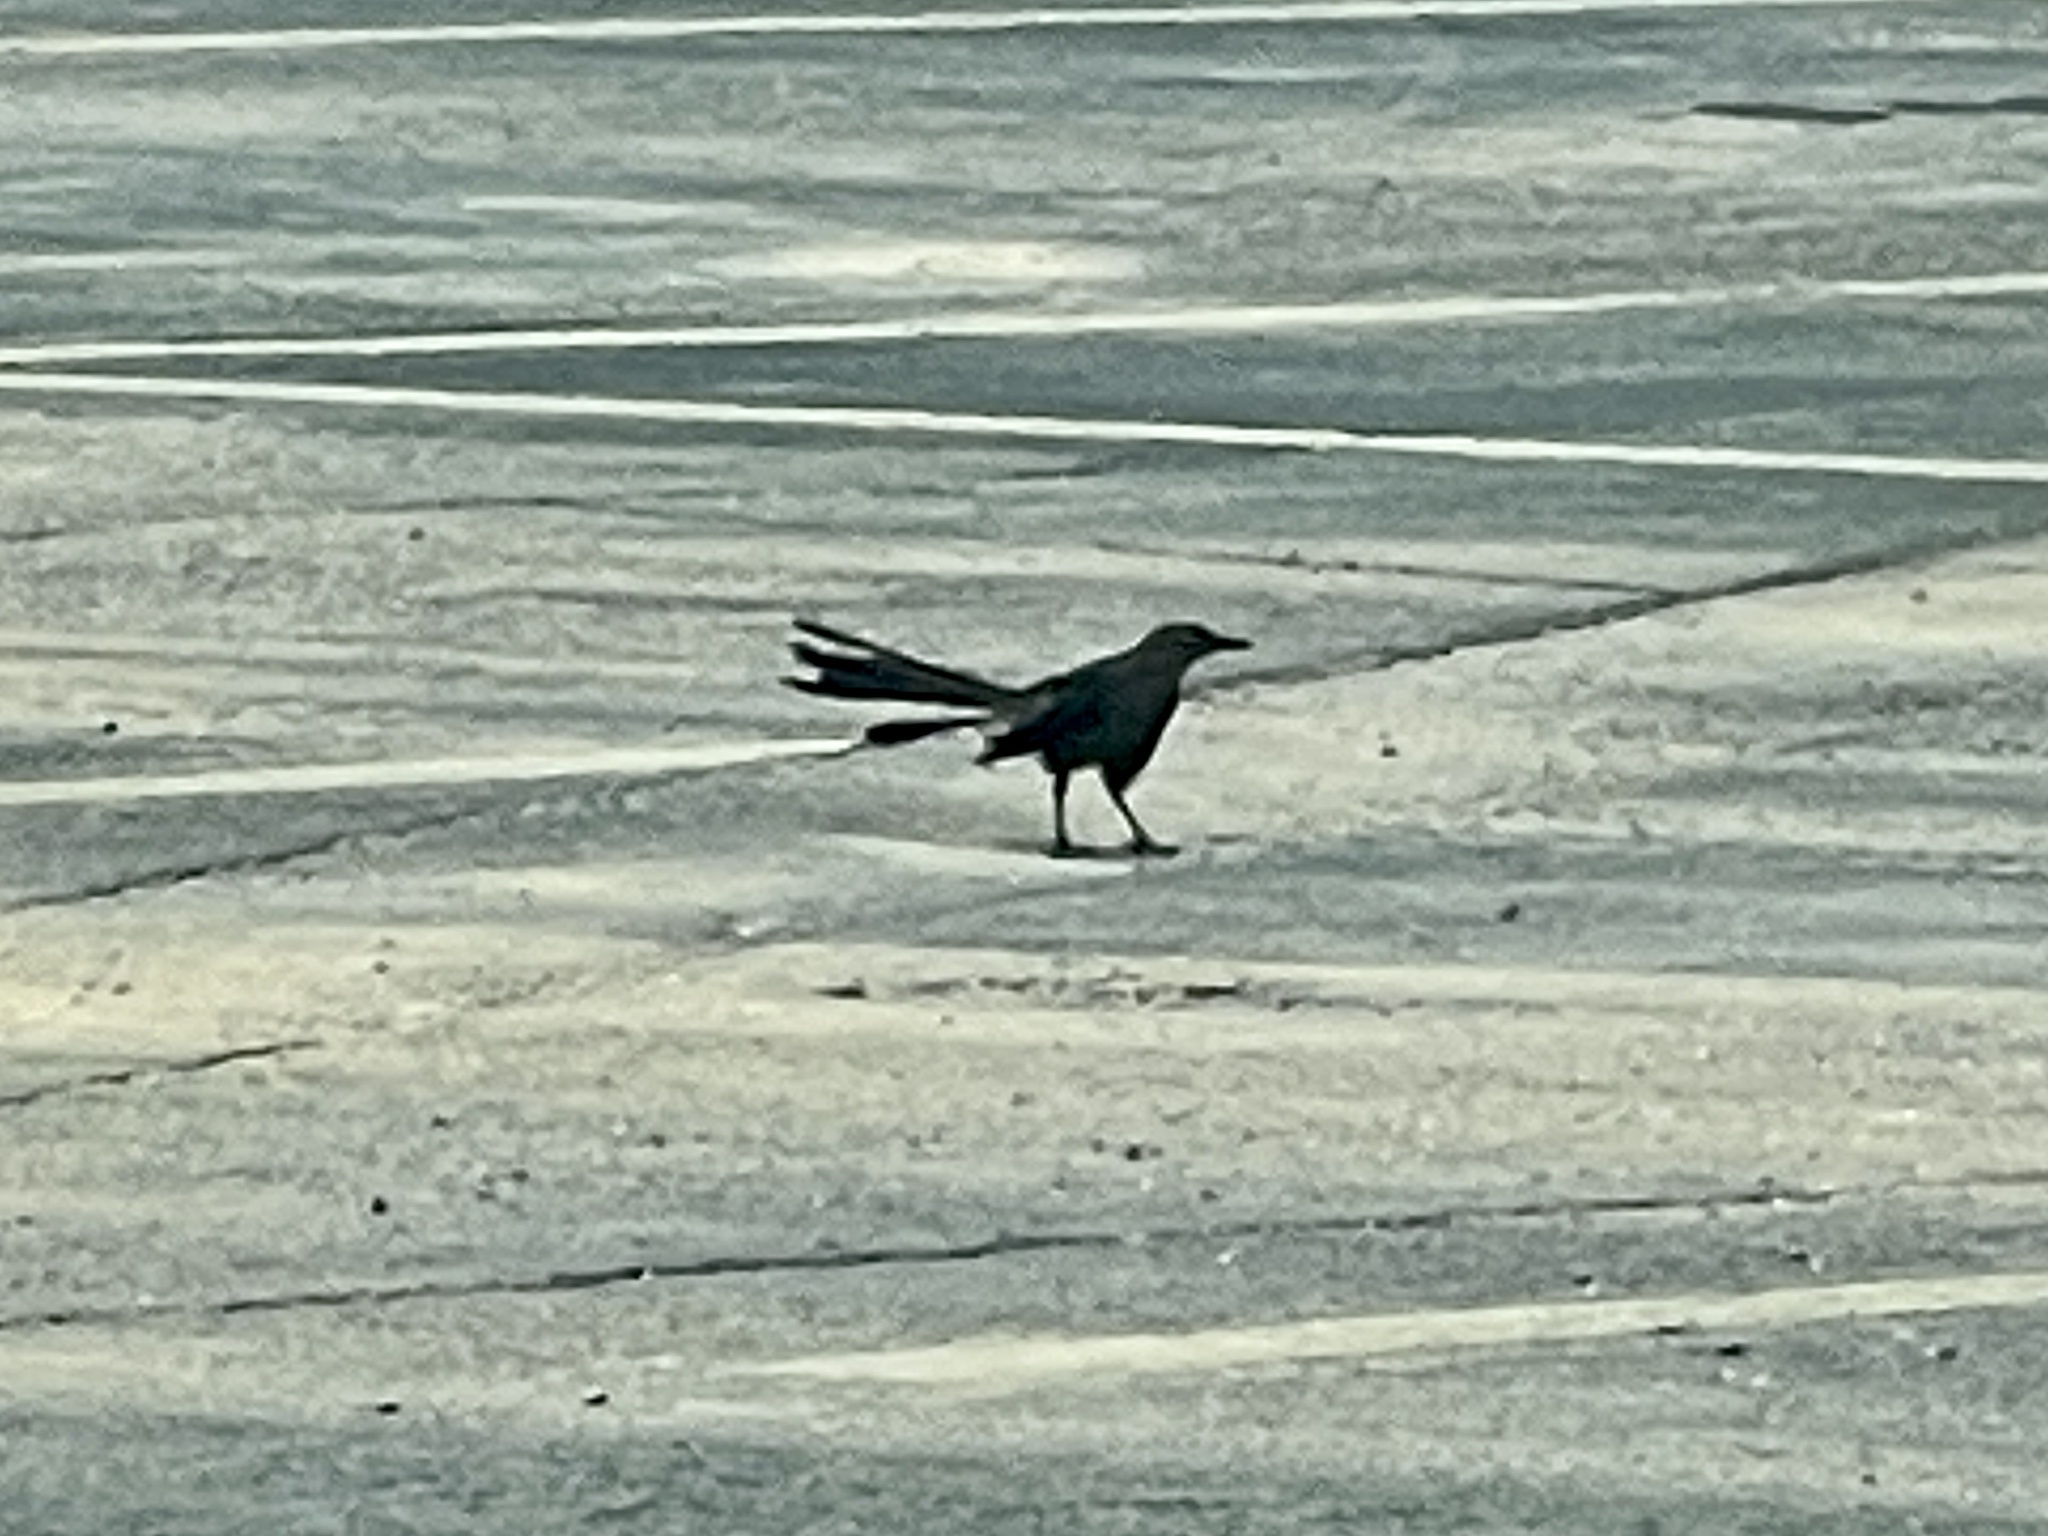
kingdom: Animalia
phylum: Chordata
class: Aves
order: Passeriformes
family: Icteridae
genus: Quiscalus
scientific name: Quiscalus mexicanus
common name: Great-tailed grackle
